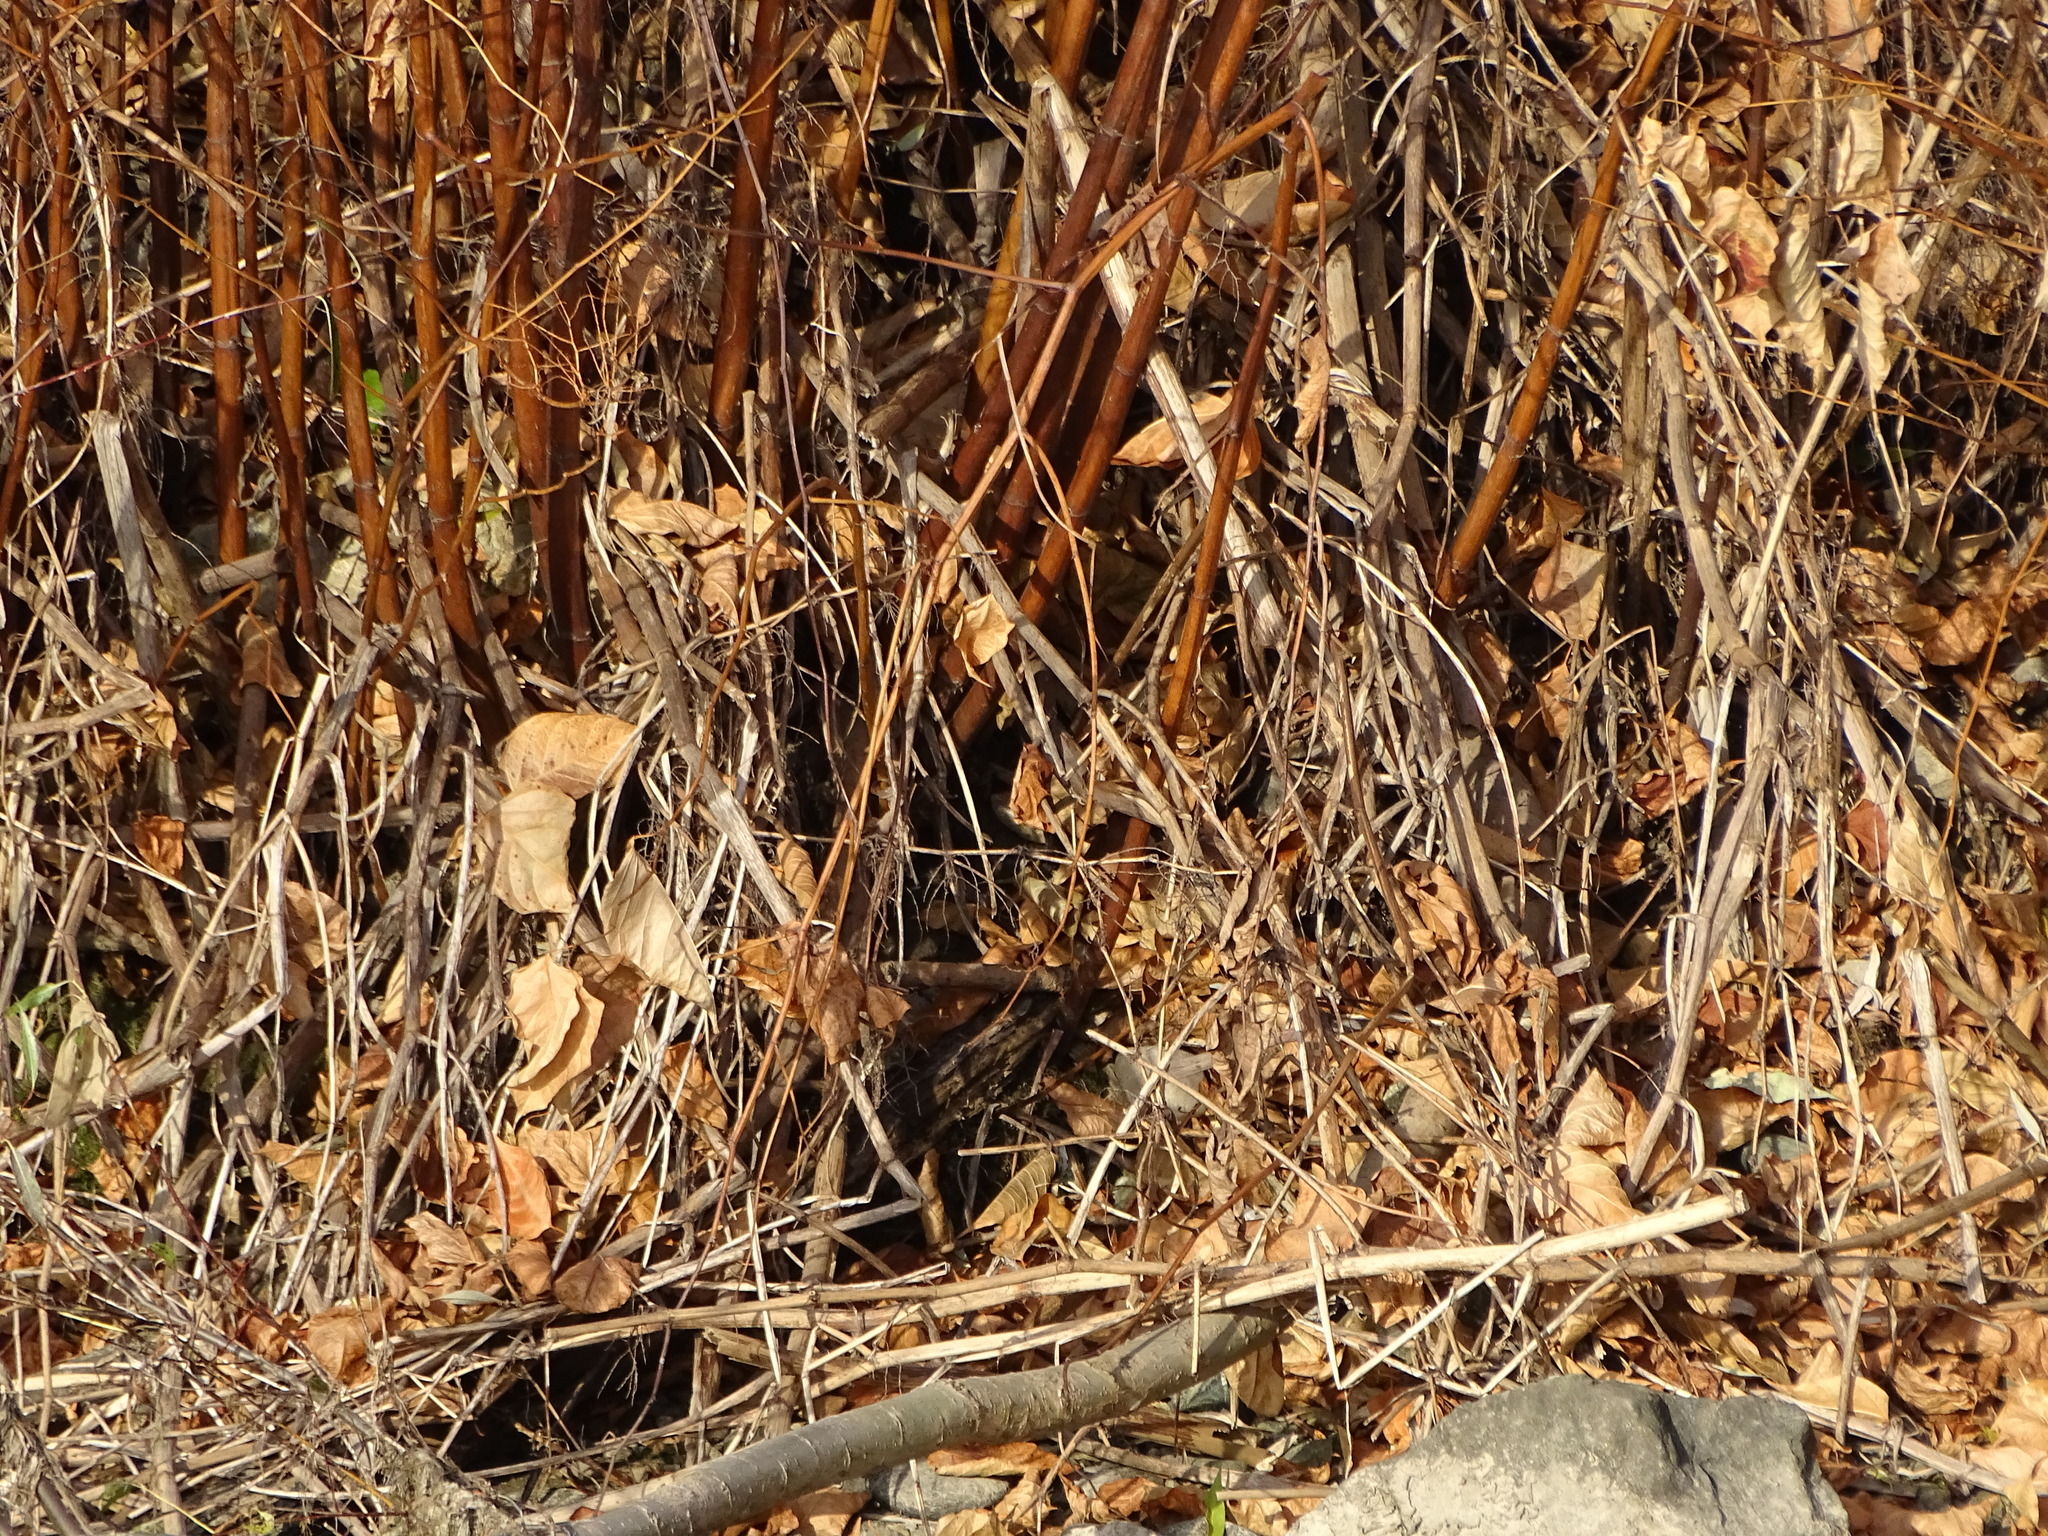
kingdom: Plantae
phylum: Tracheophyta
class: Magnoliopsida
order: Caryophyllales
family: Polygonaceae
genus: Reynoutria
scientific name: Reynoutria
